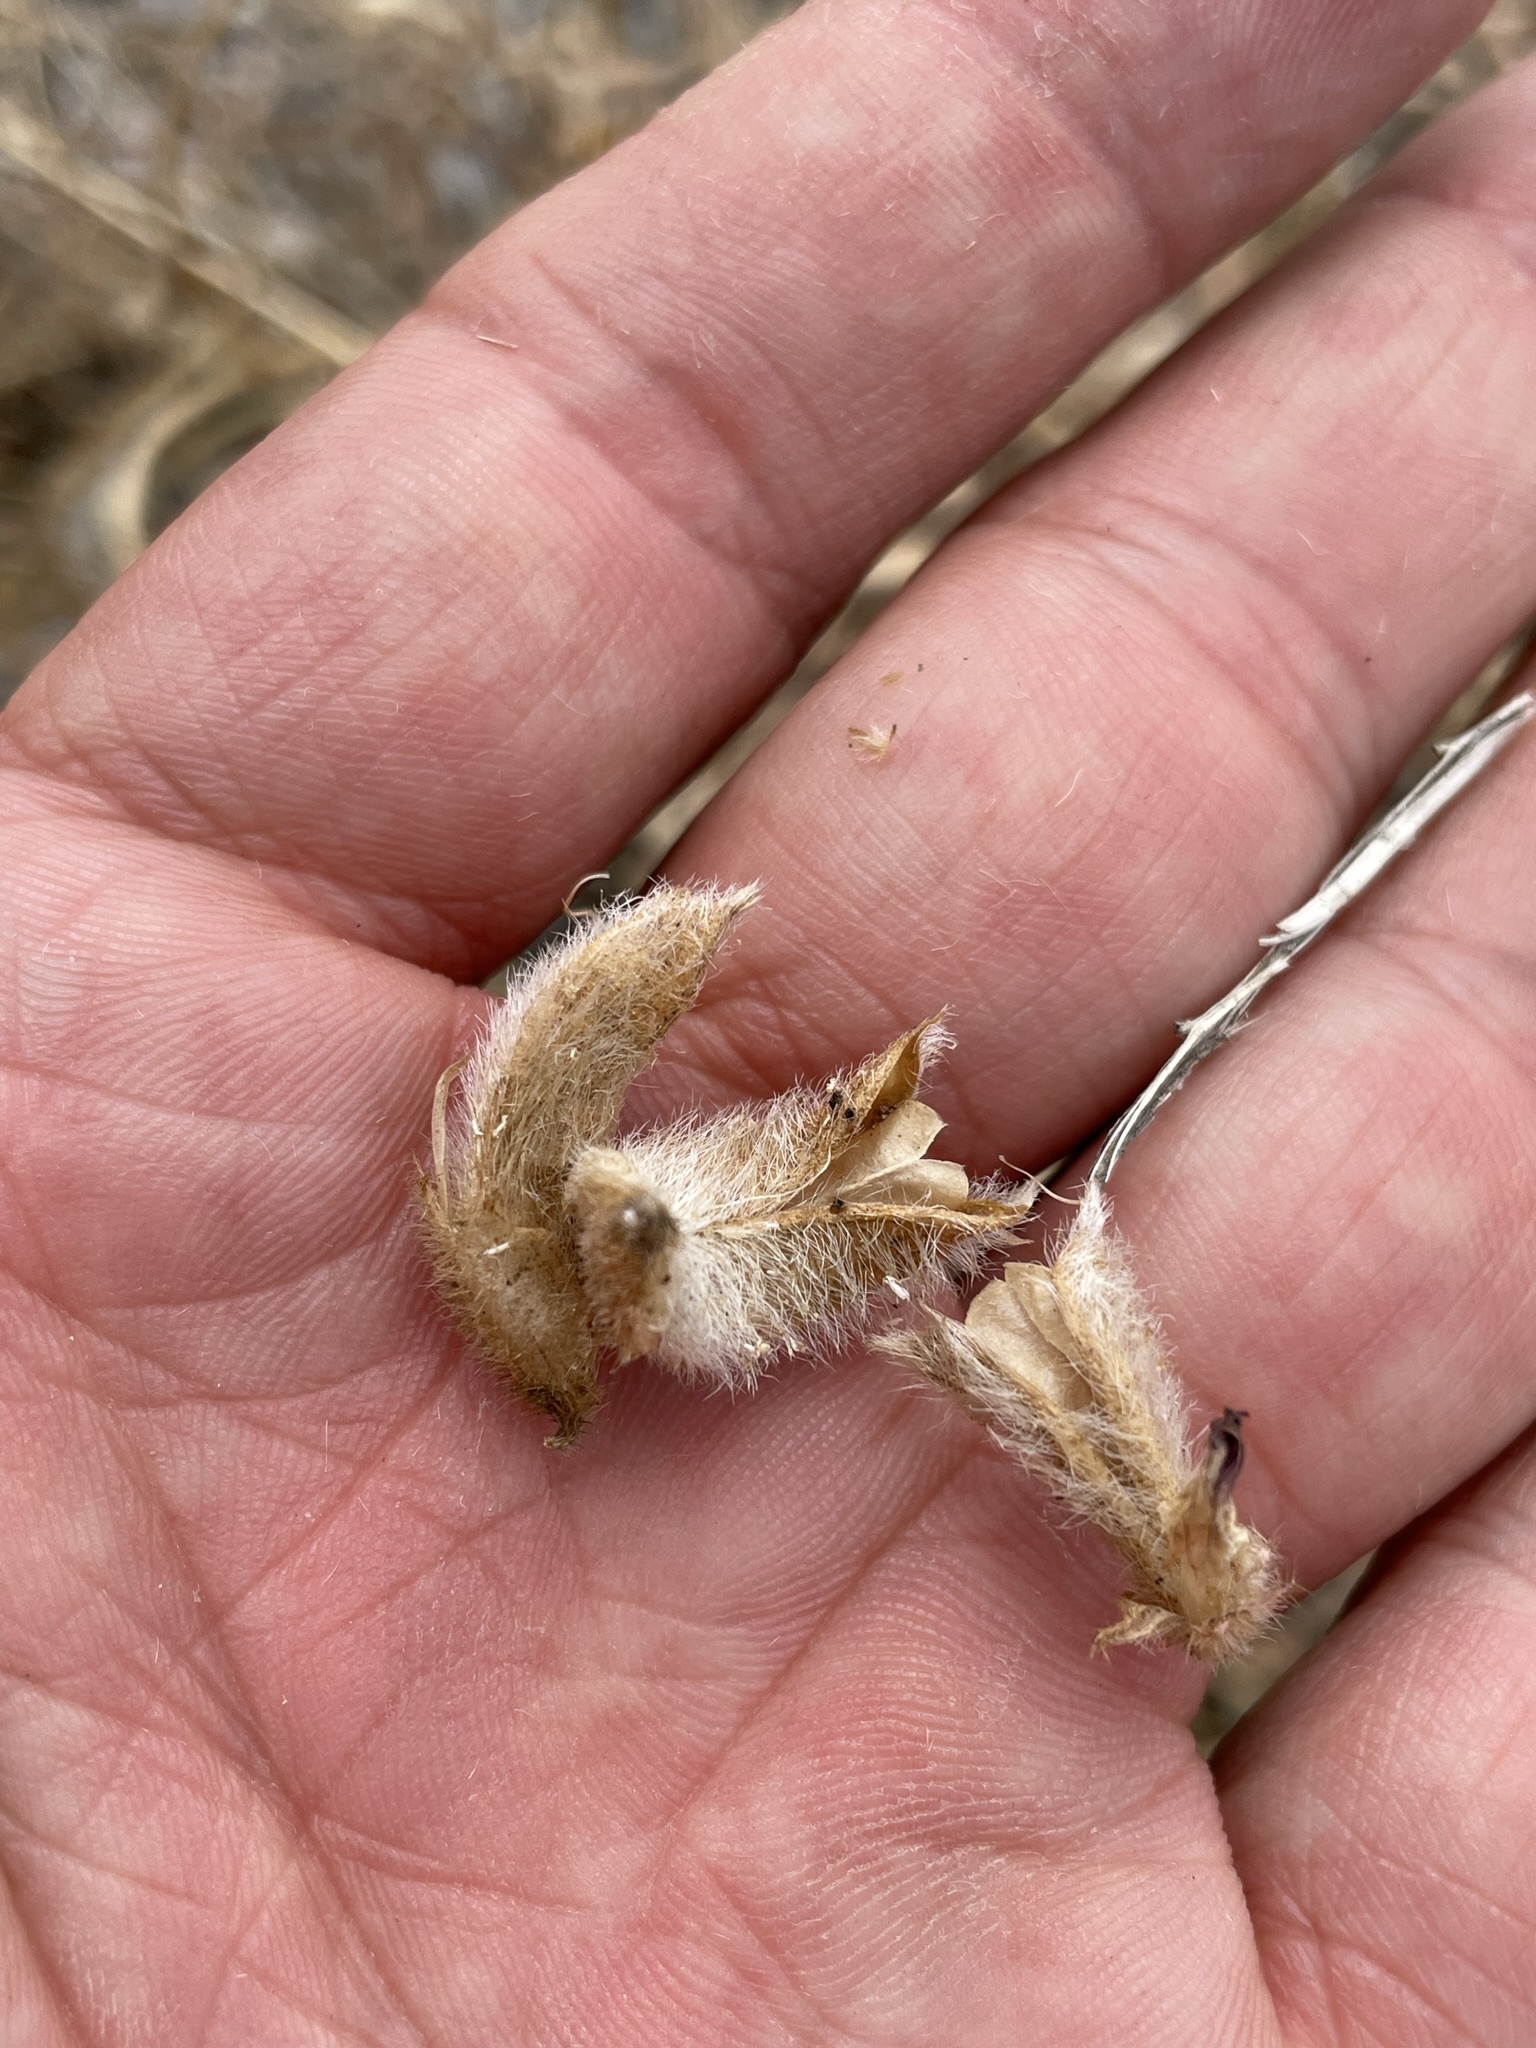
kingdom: Plantae
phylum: Tracheophyta
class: Magnoliopsida
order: Fabales
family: Fabaceae
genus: Astragalus
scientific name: Astragalus malacus
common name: Shaggy milk-vetch
